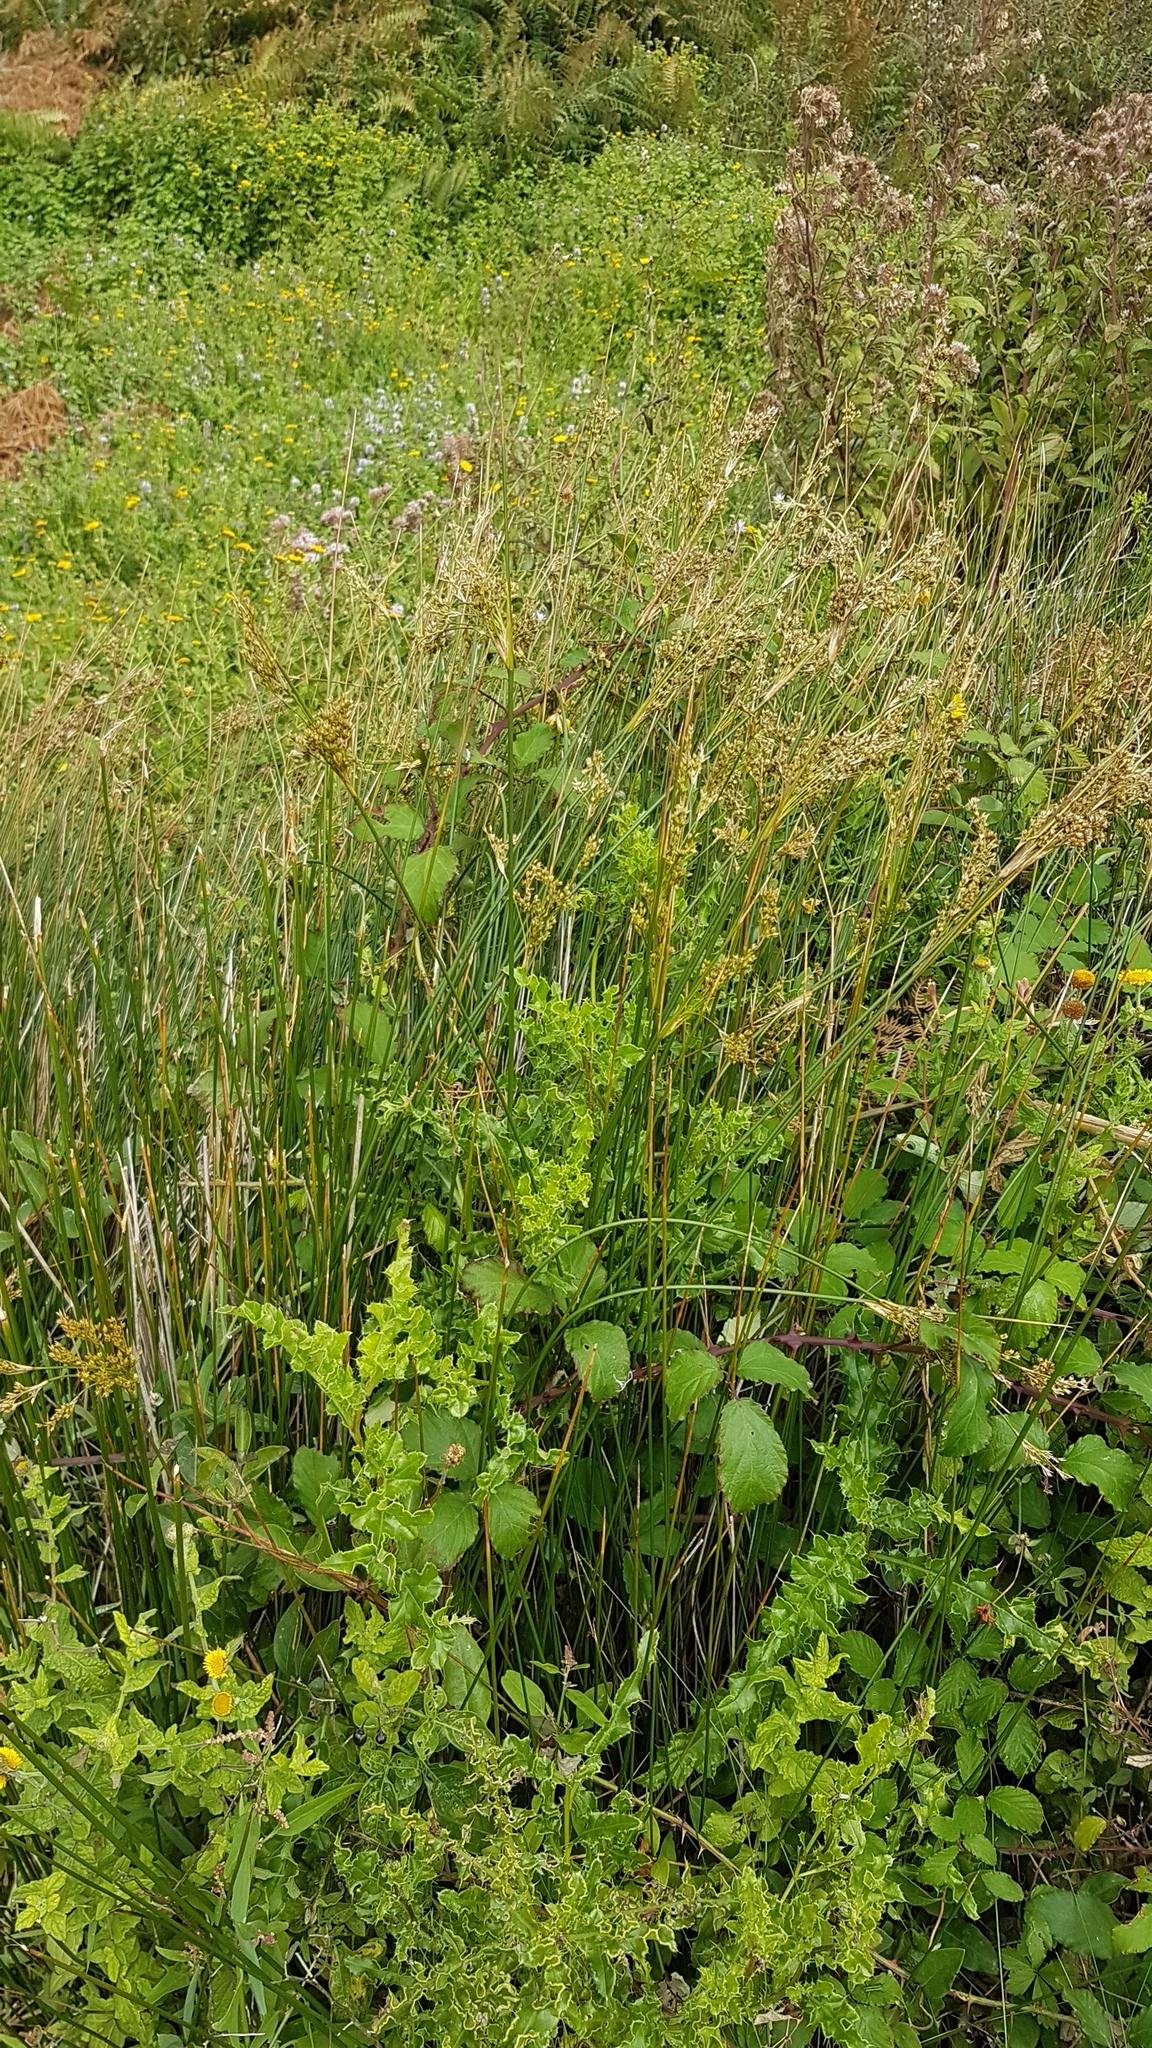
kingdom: Plantae
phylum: Tracheophyta
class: Liliopsida
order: Poales
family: Juncaceae
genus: Juncus
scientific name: Juncus maritimus
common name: Sea rush
